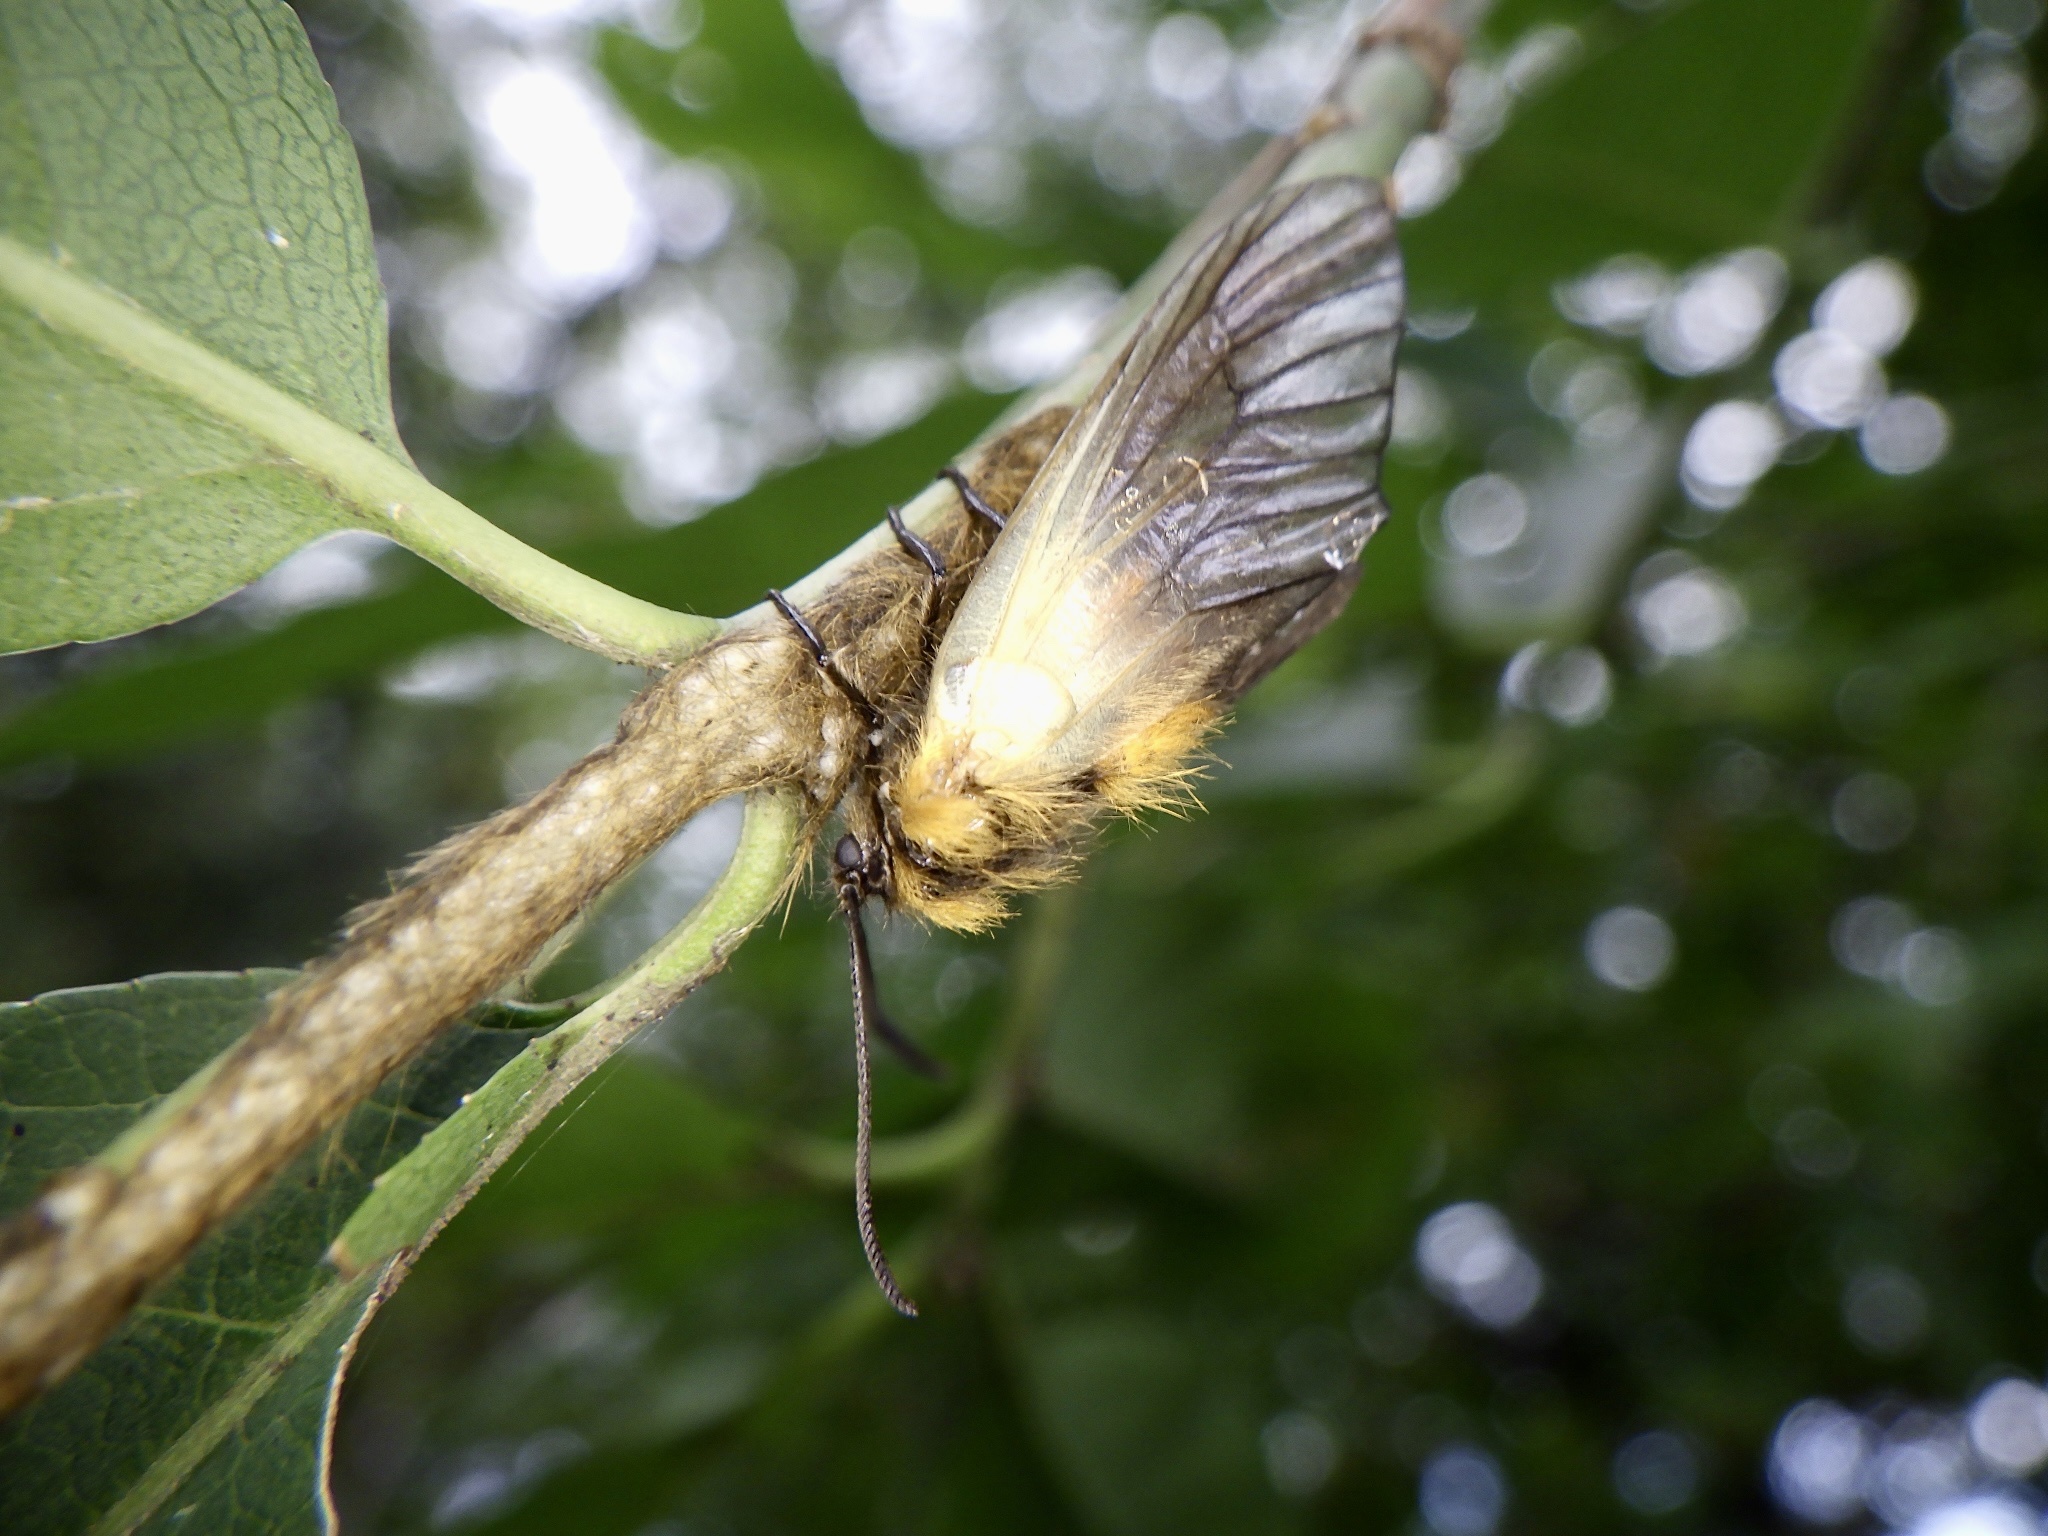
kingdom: Animalia
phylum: Arthropoda
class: Insecta
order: Lepidoptera
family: Zygaenidae
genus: Sinica
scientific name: Sinica sinica
